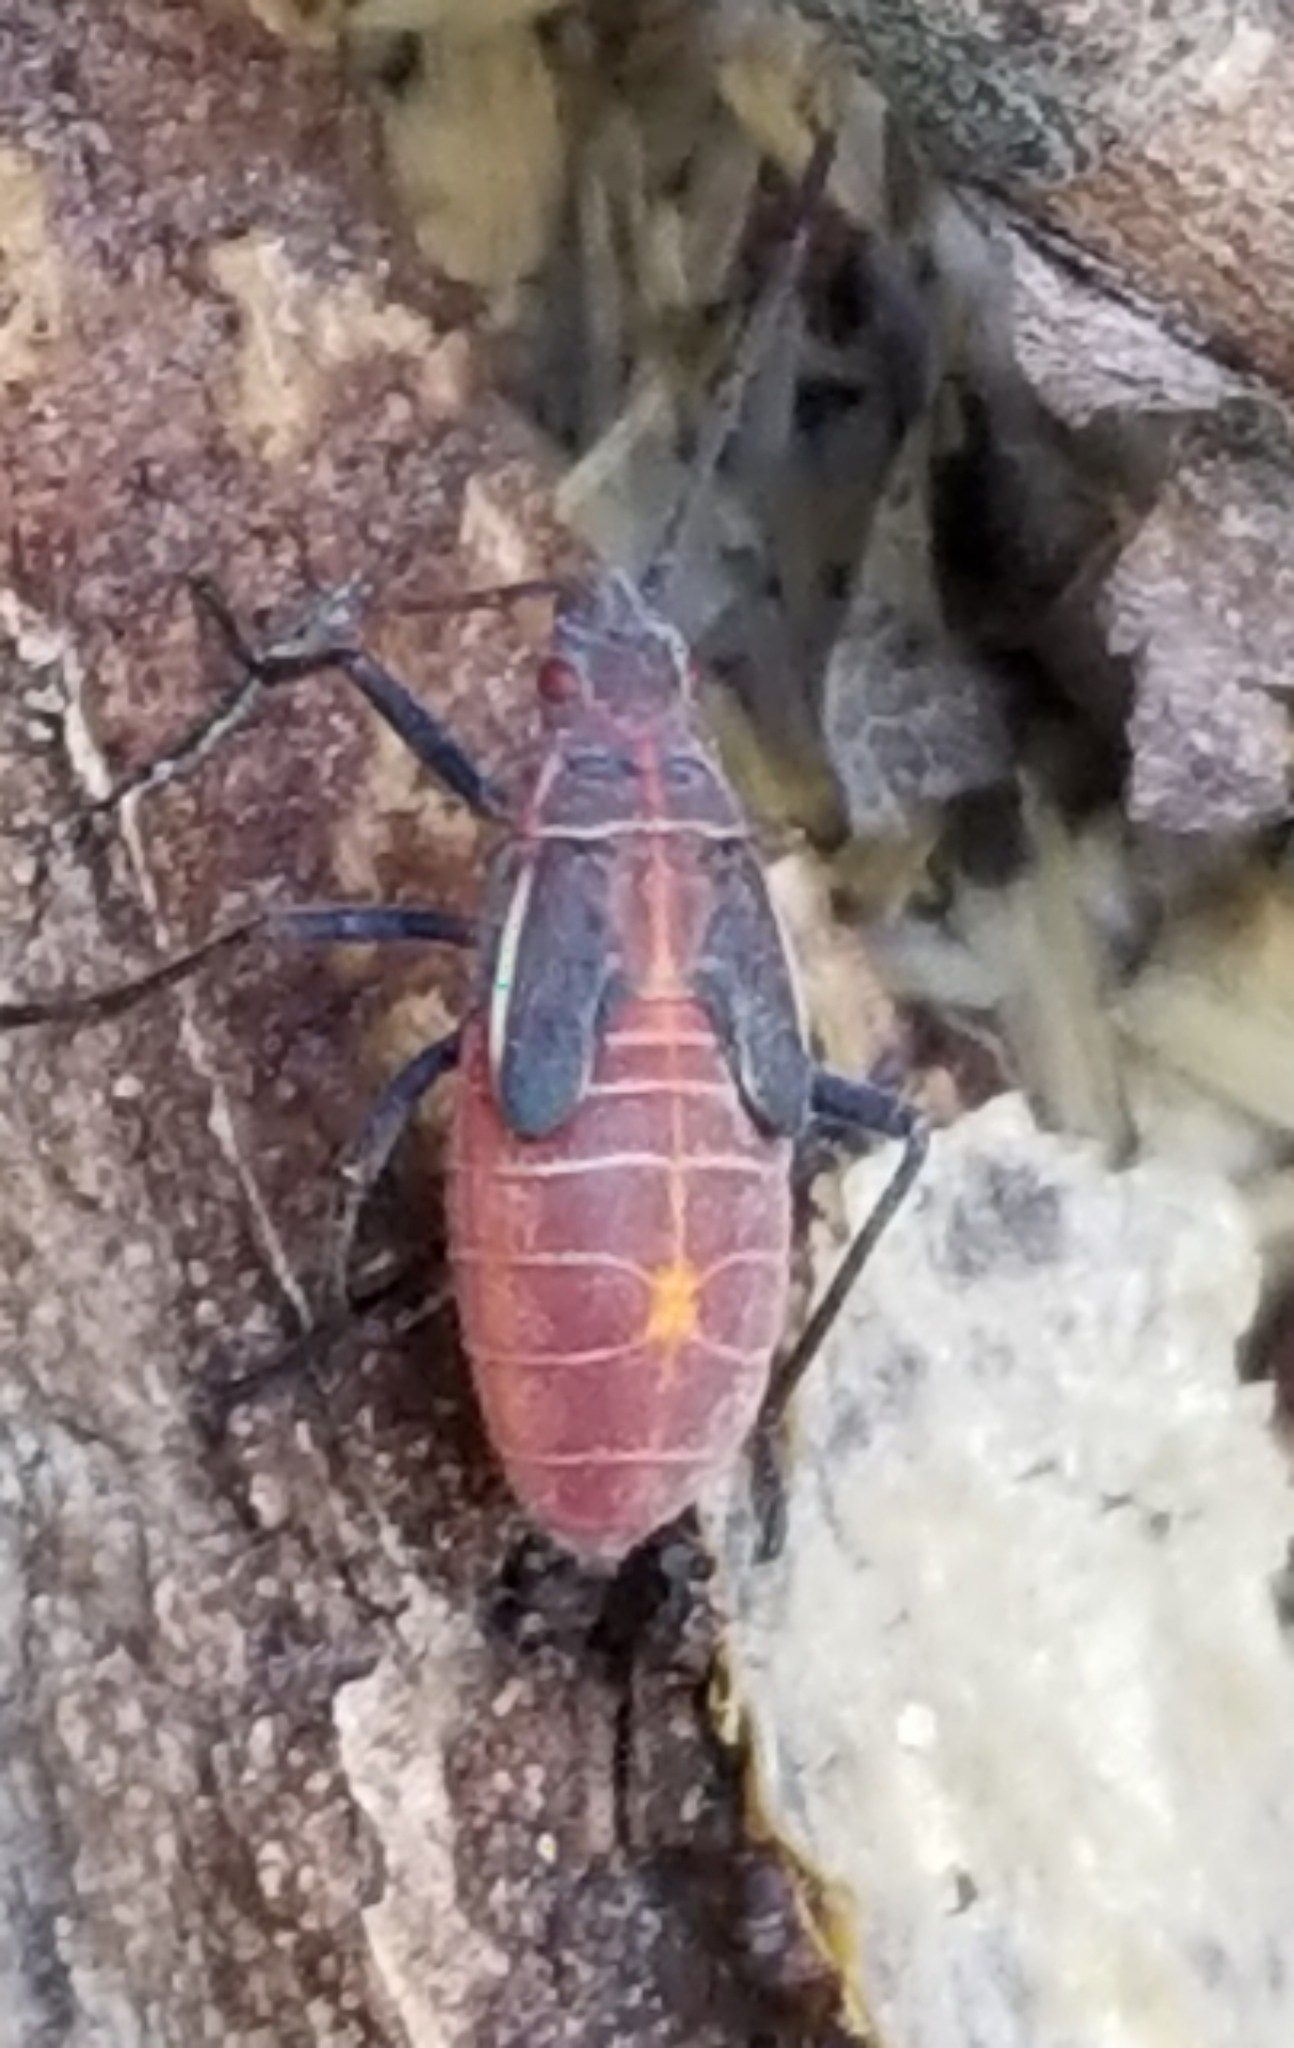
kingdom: Animalia
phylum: Arthropoda
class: Insecta
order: Hemiptera
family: Rhopalidae
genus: Boisea
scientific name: Boisea rubrolineata
